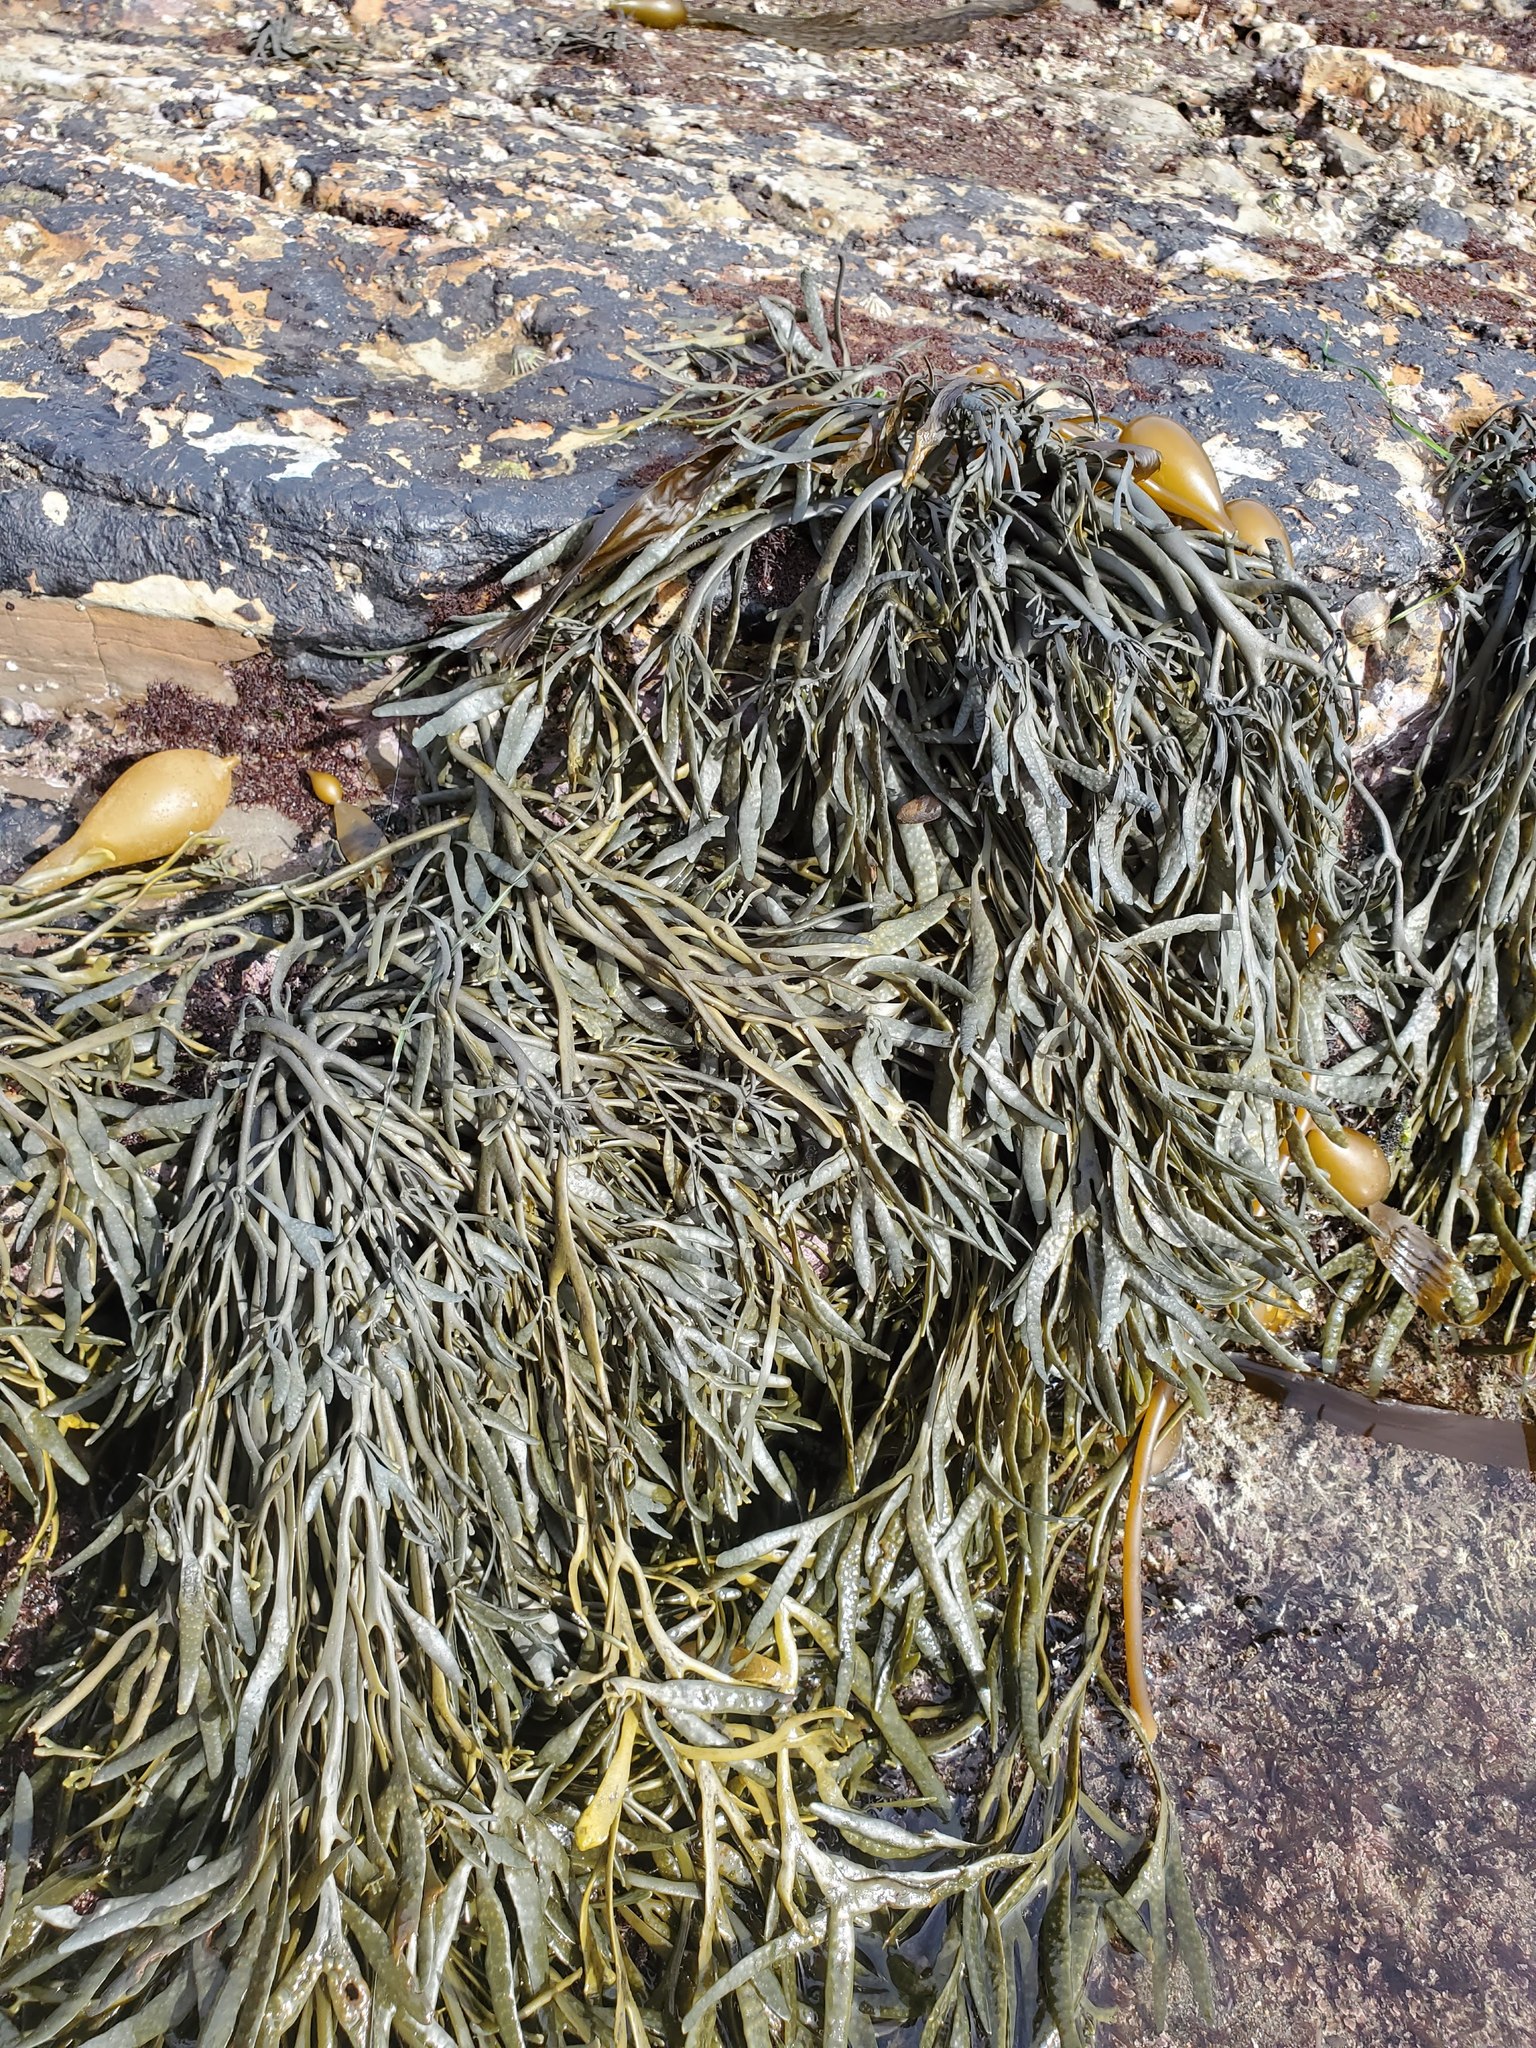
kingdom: Chromista
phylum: Ochrophyta
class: Phaeophyceae
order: Fucales
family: Fucaceae
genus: Silvetia
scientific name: Silvetia
